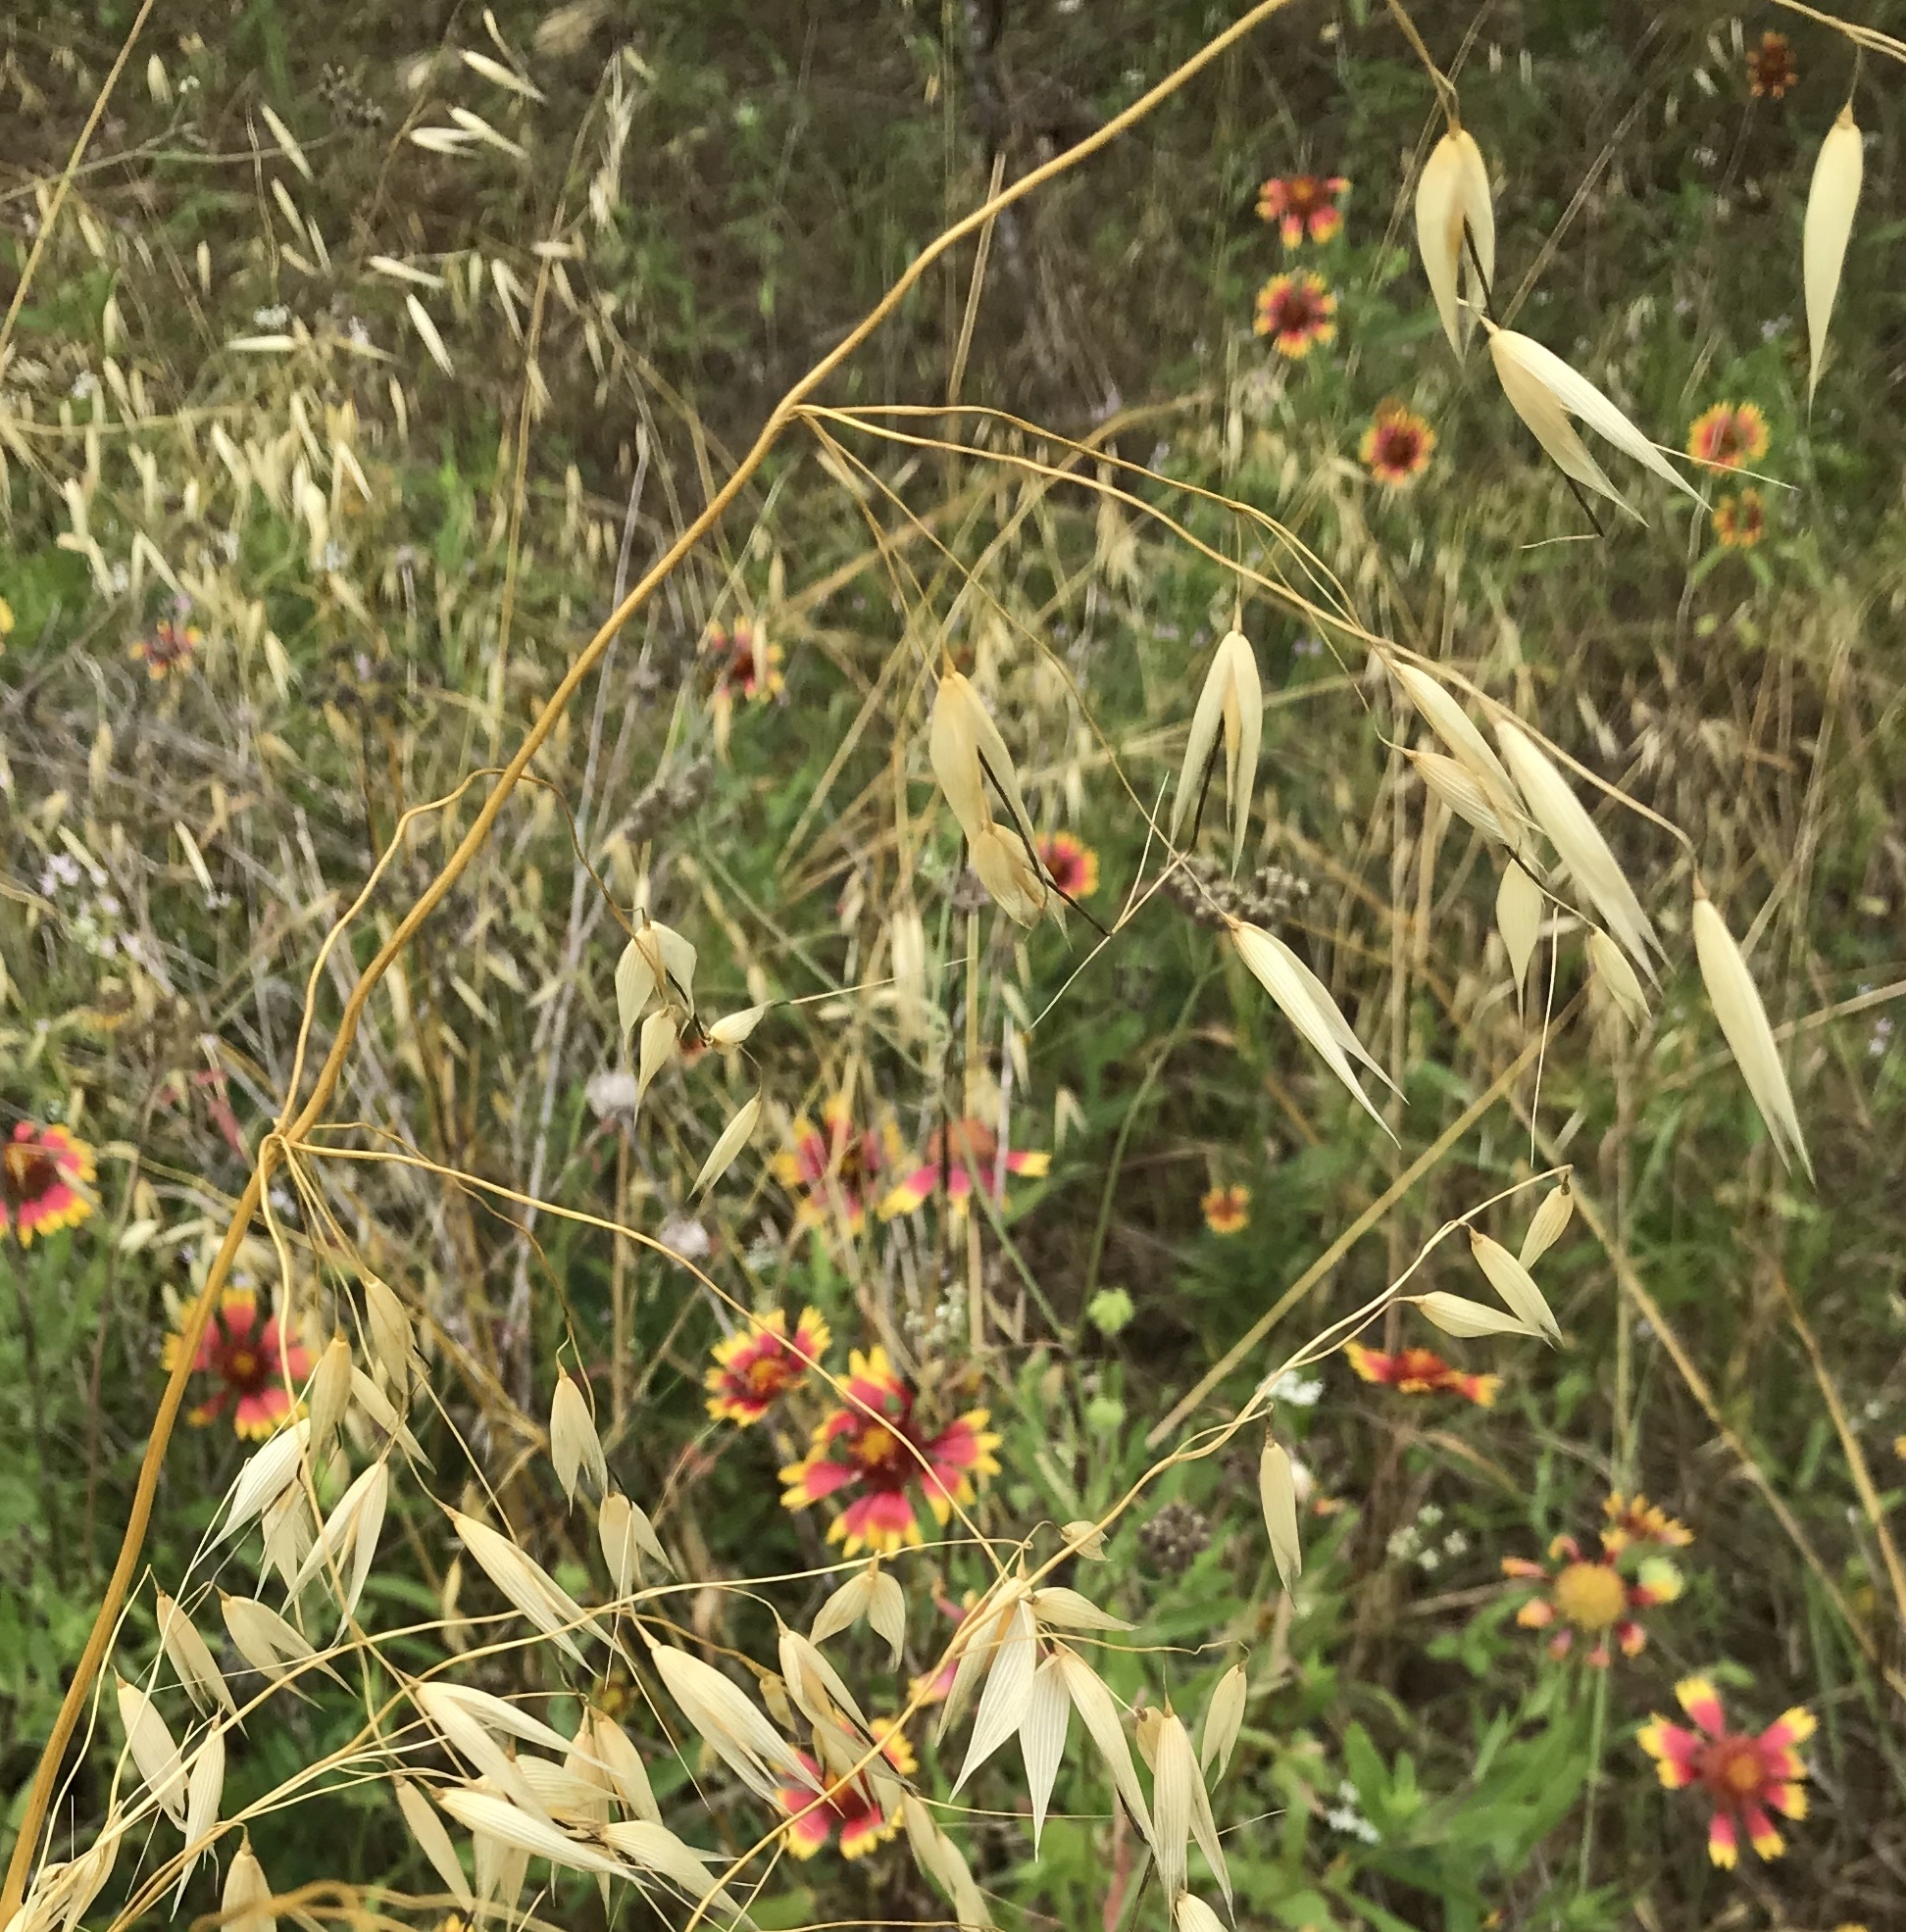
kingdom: Plantae
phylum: Tracheophyta
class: Liliopsida
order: Poales
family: Poaceae
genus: Avena
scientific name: Avena fatua
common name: Wild oat
